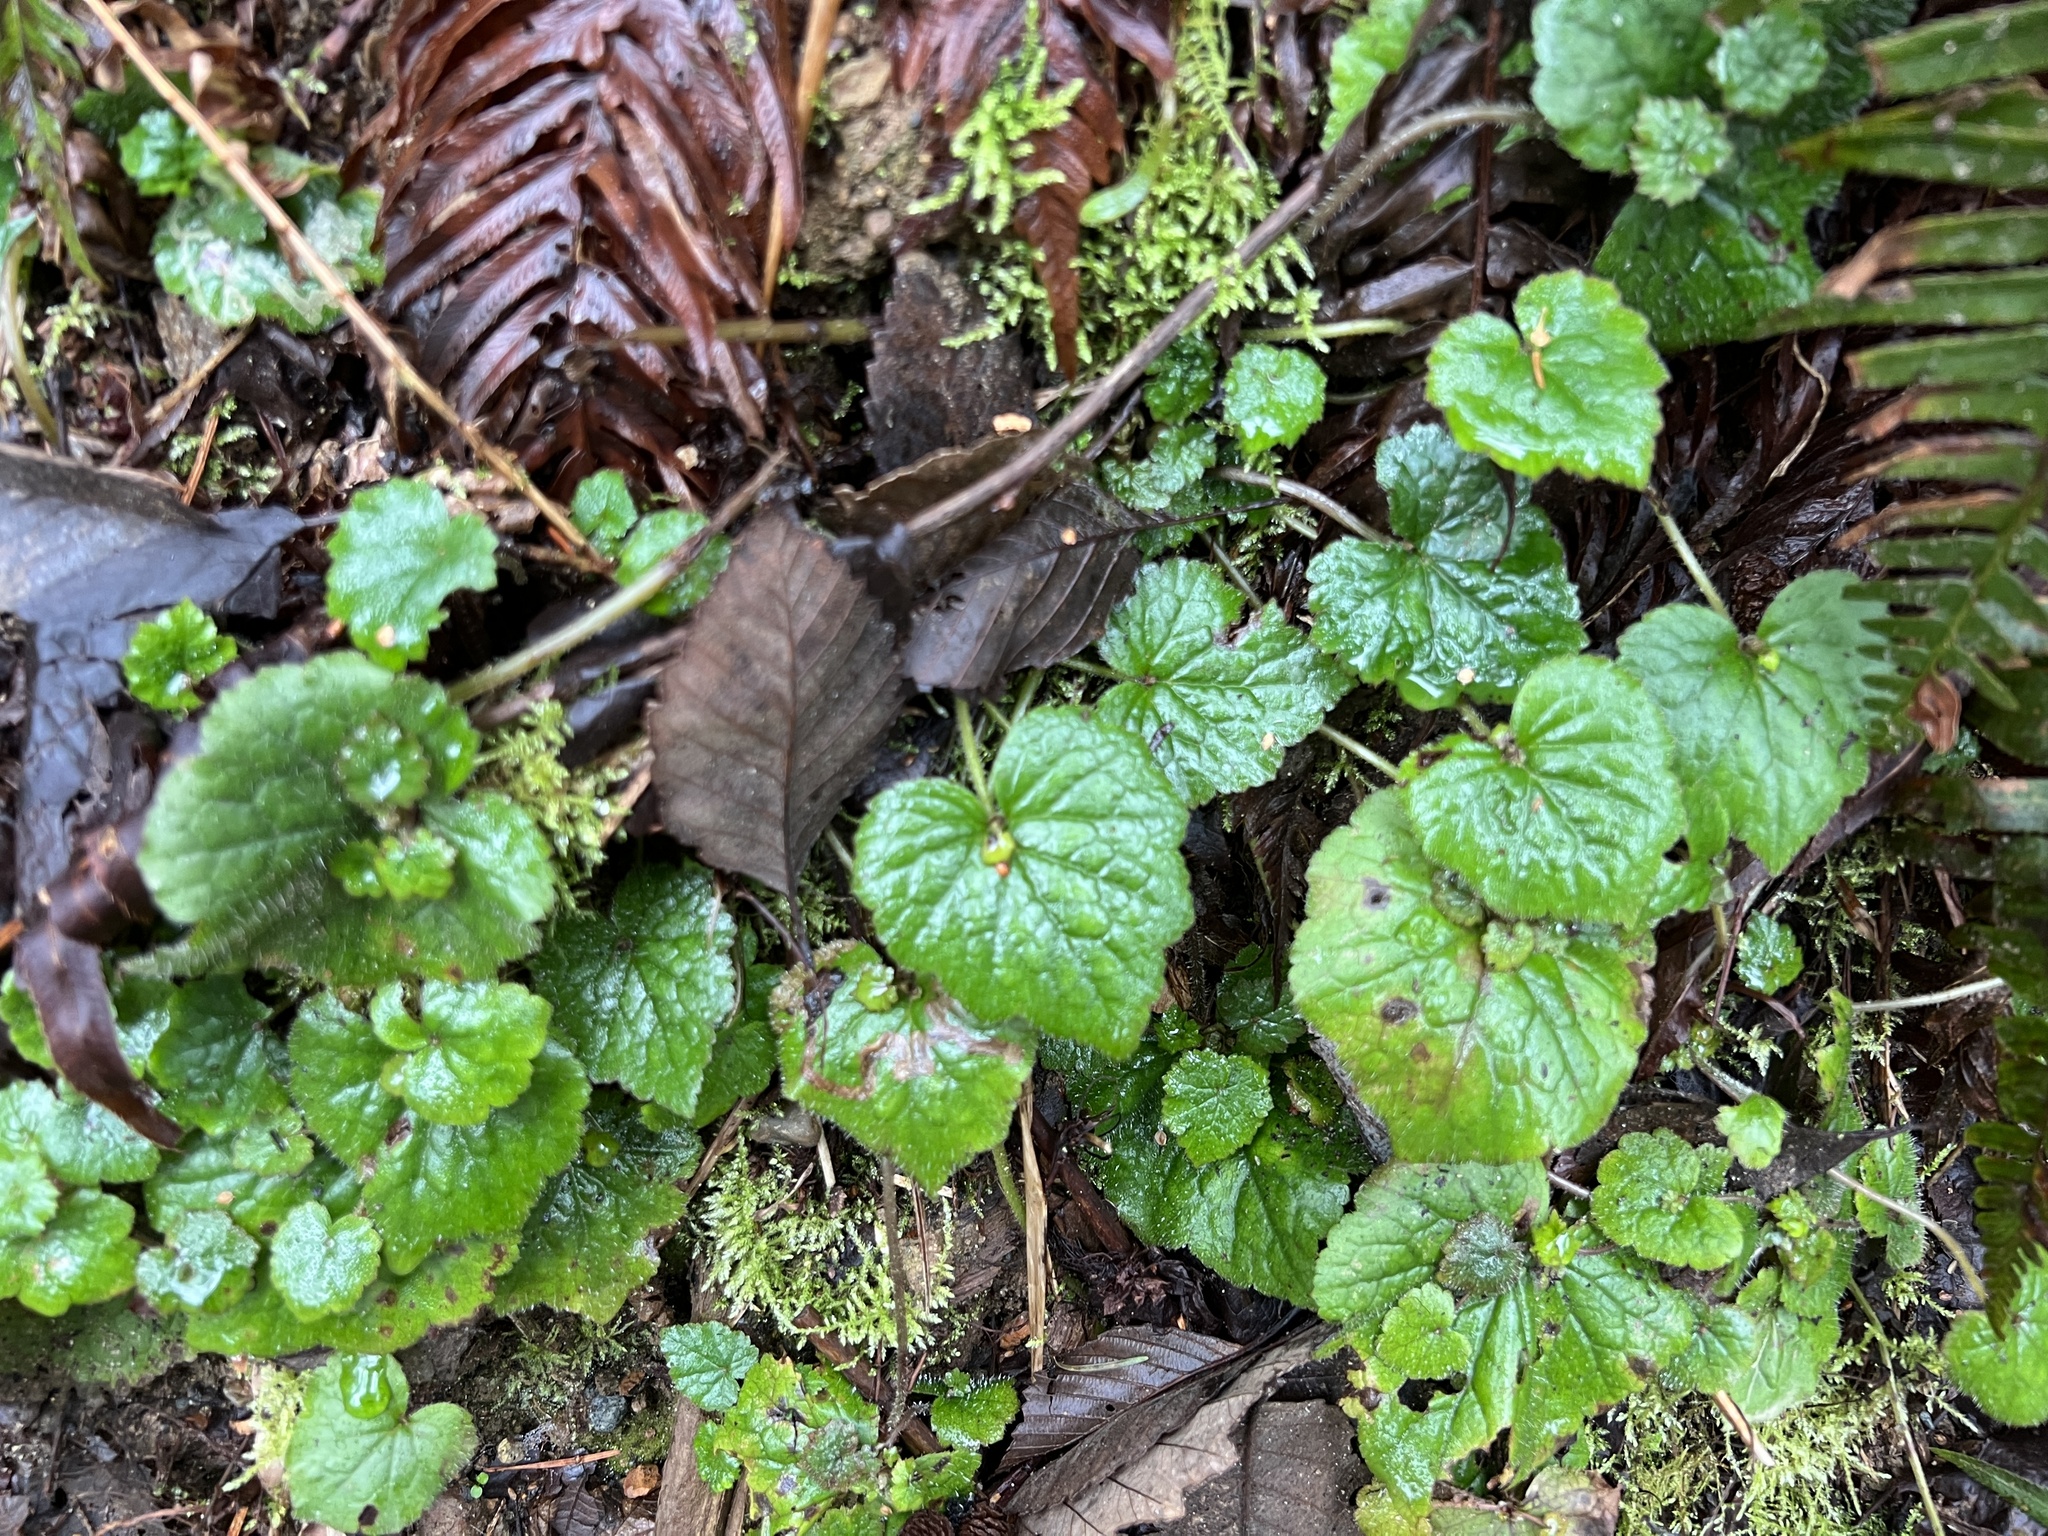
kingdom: Plantae
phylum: Tracheophyta
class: Magnoliopsida
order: Saxifragales
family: Saxifragaceae
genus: Tolmiea
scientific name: Tolmiea menziesii
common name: Pick-a-back-plant
